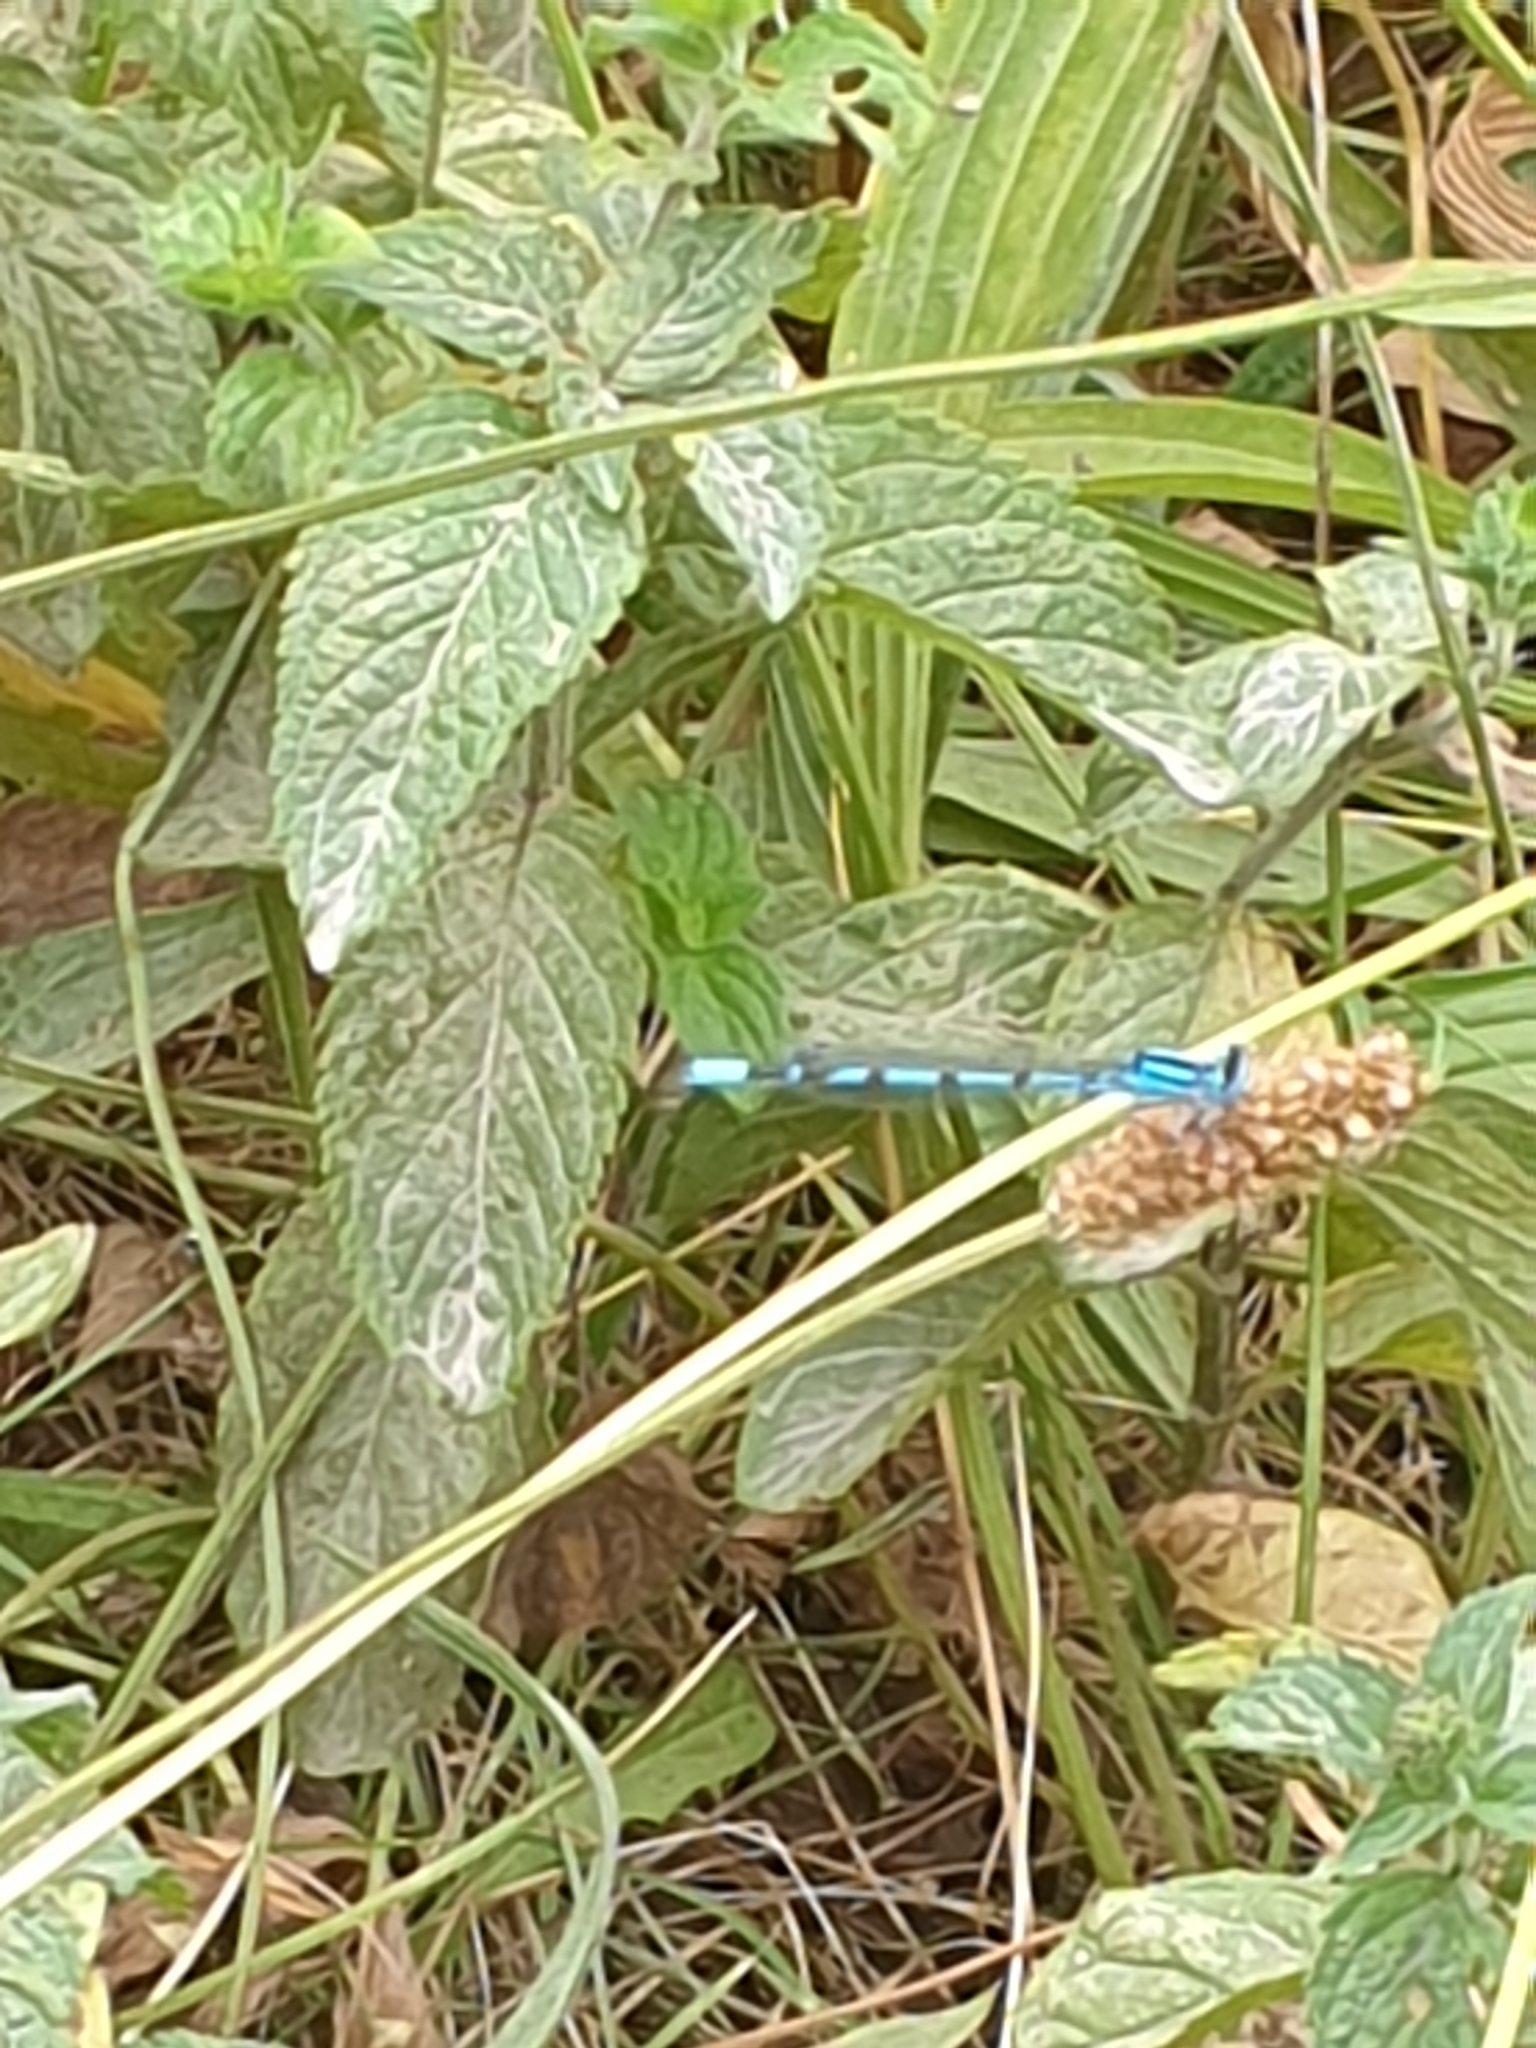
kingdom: Animalia
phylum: Arthropoda
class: Insecta
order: Odonata
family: Coenagrionidae
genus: Enallagma
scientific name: Enallagma cyathigerum
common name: Common blue damselfly
